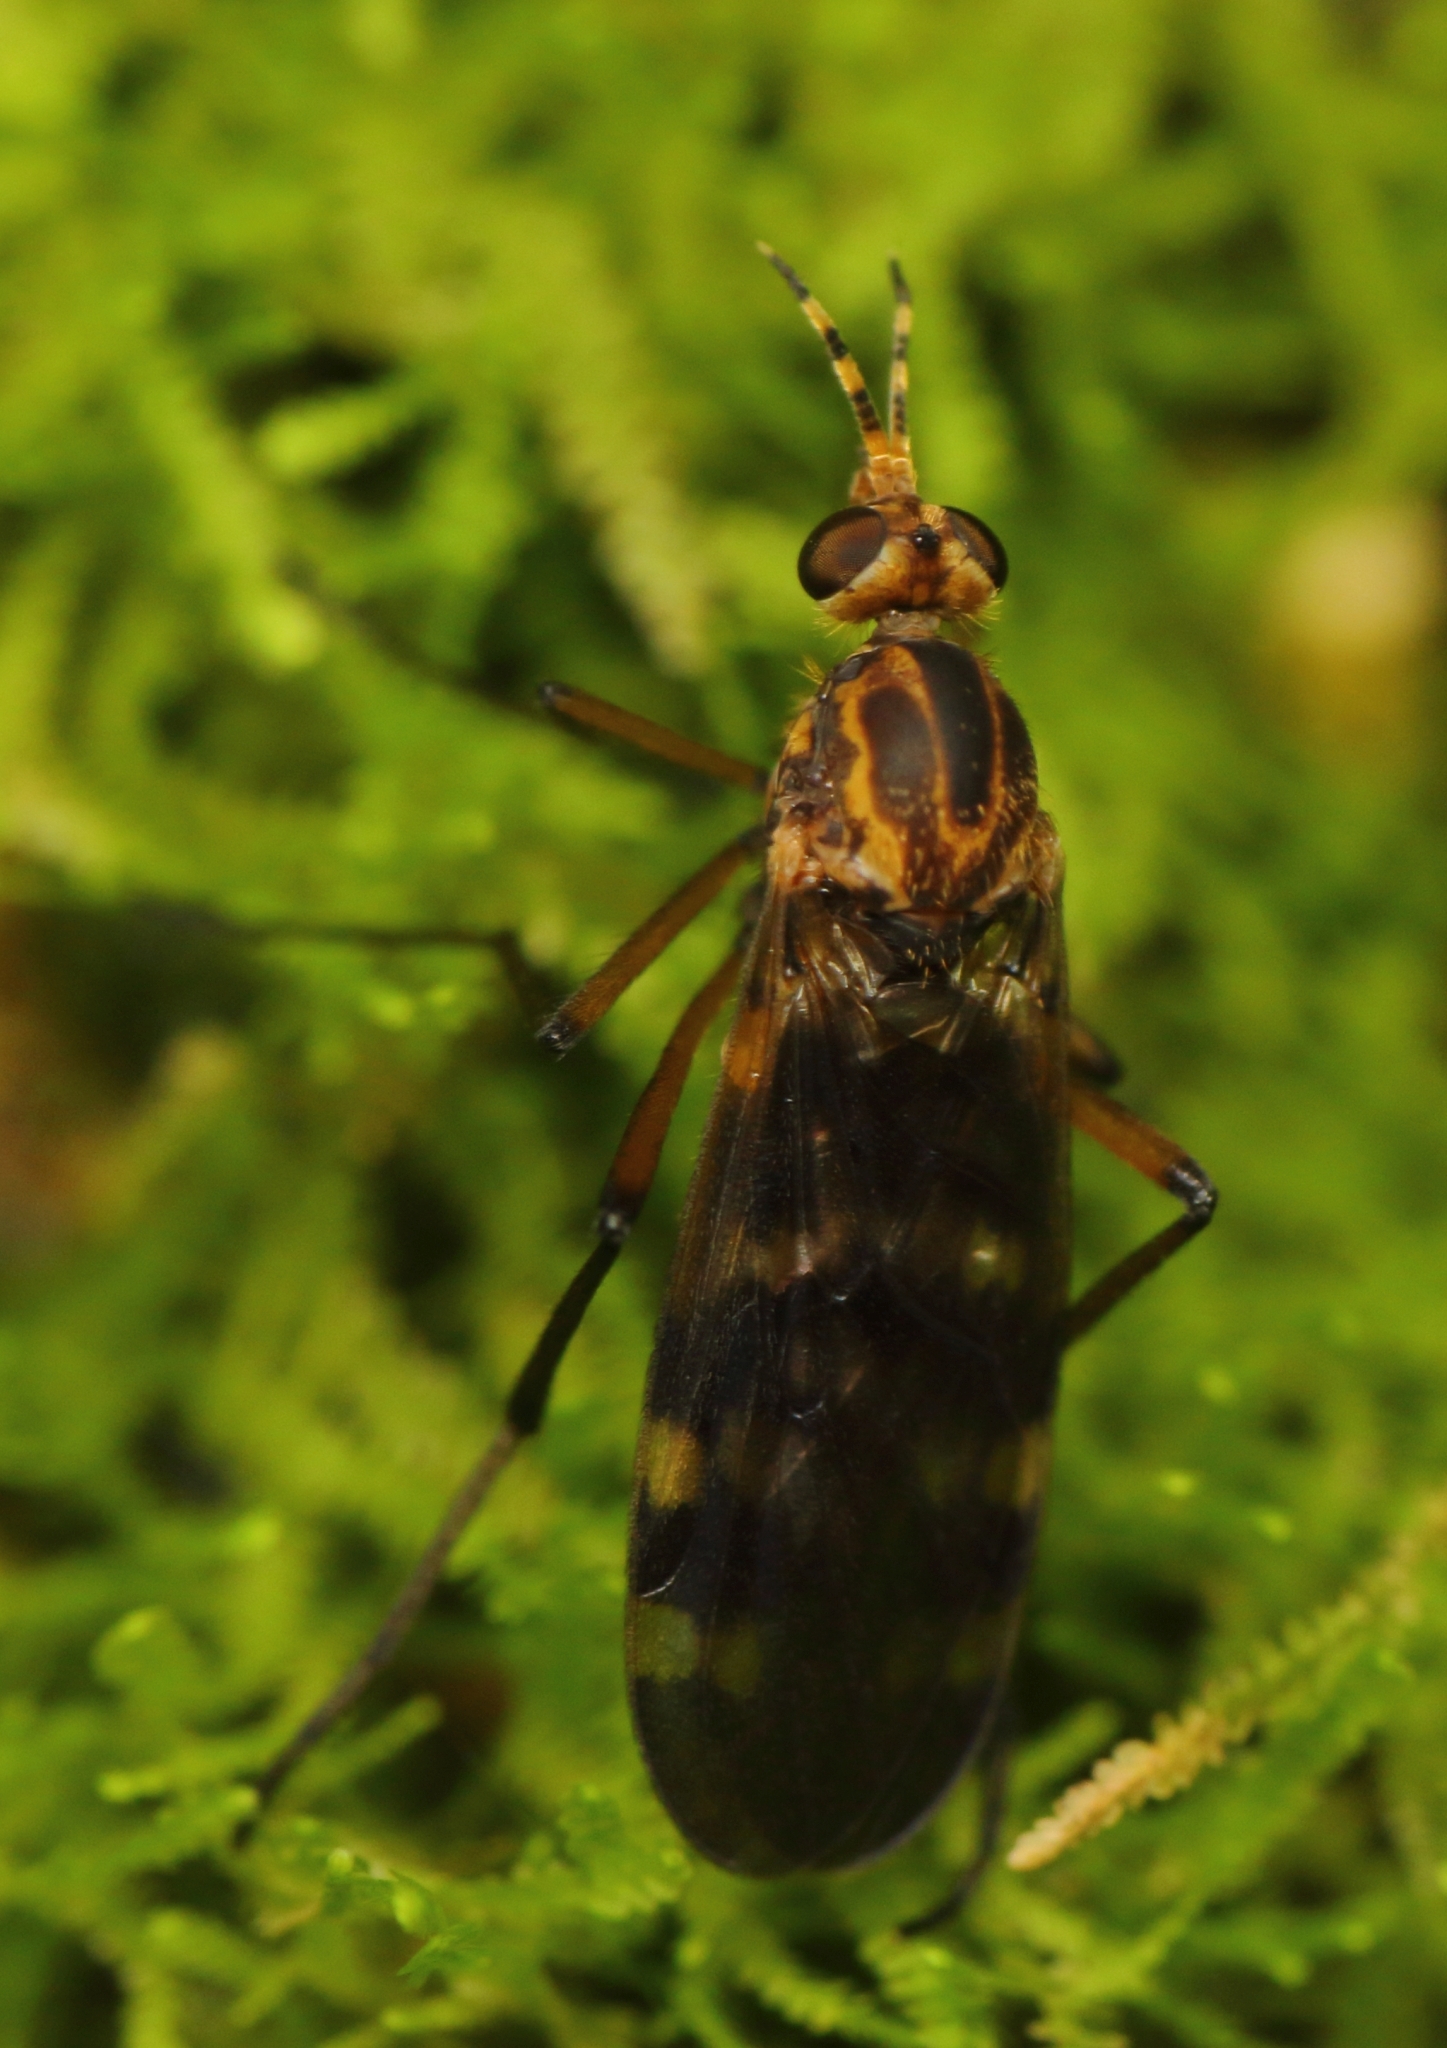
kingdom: Animalia
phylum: Arthropoda
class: Insecta
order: Diptera
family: Anisopodidae
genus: Sylvicola
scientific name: Sylvicola annulicornis
